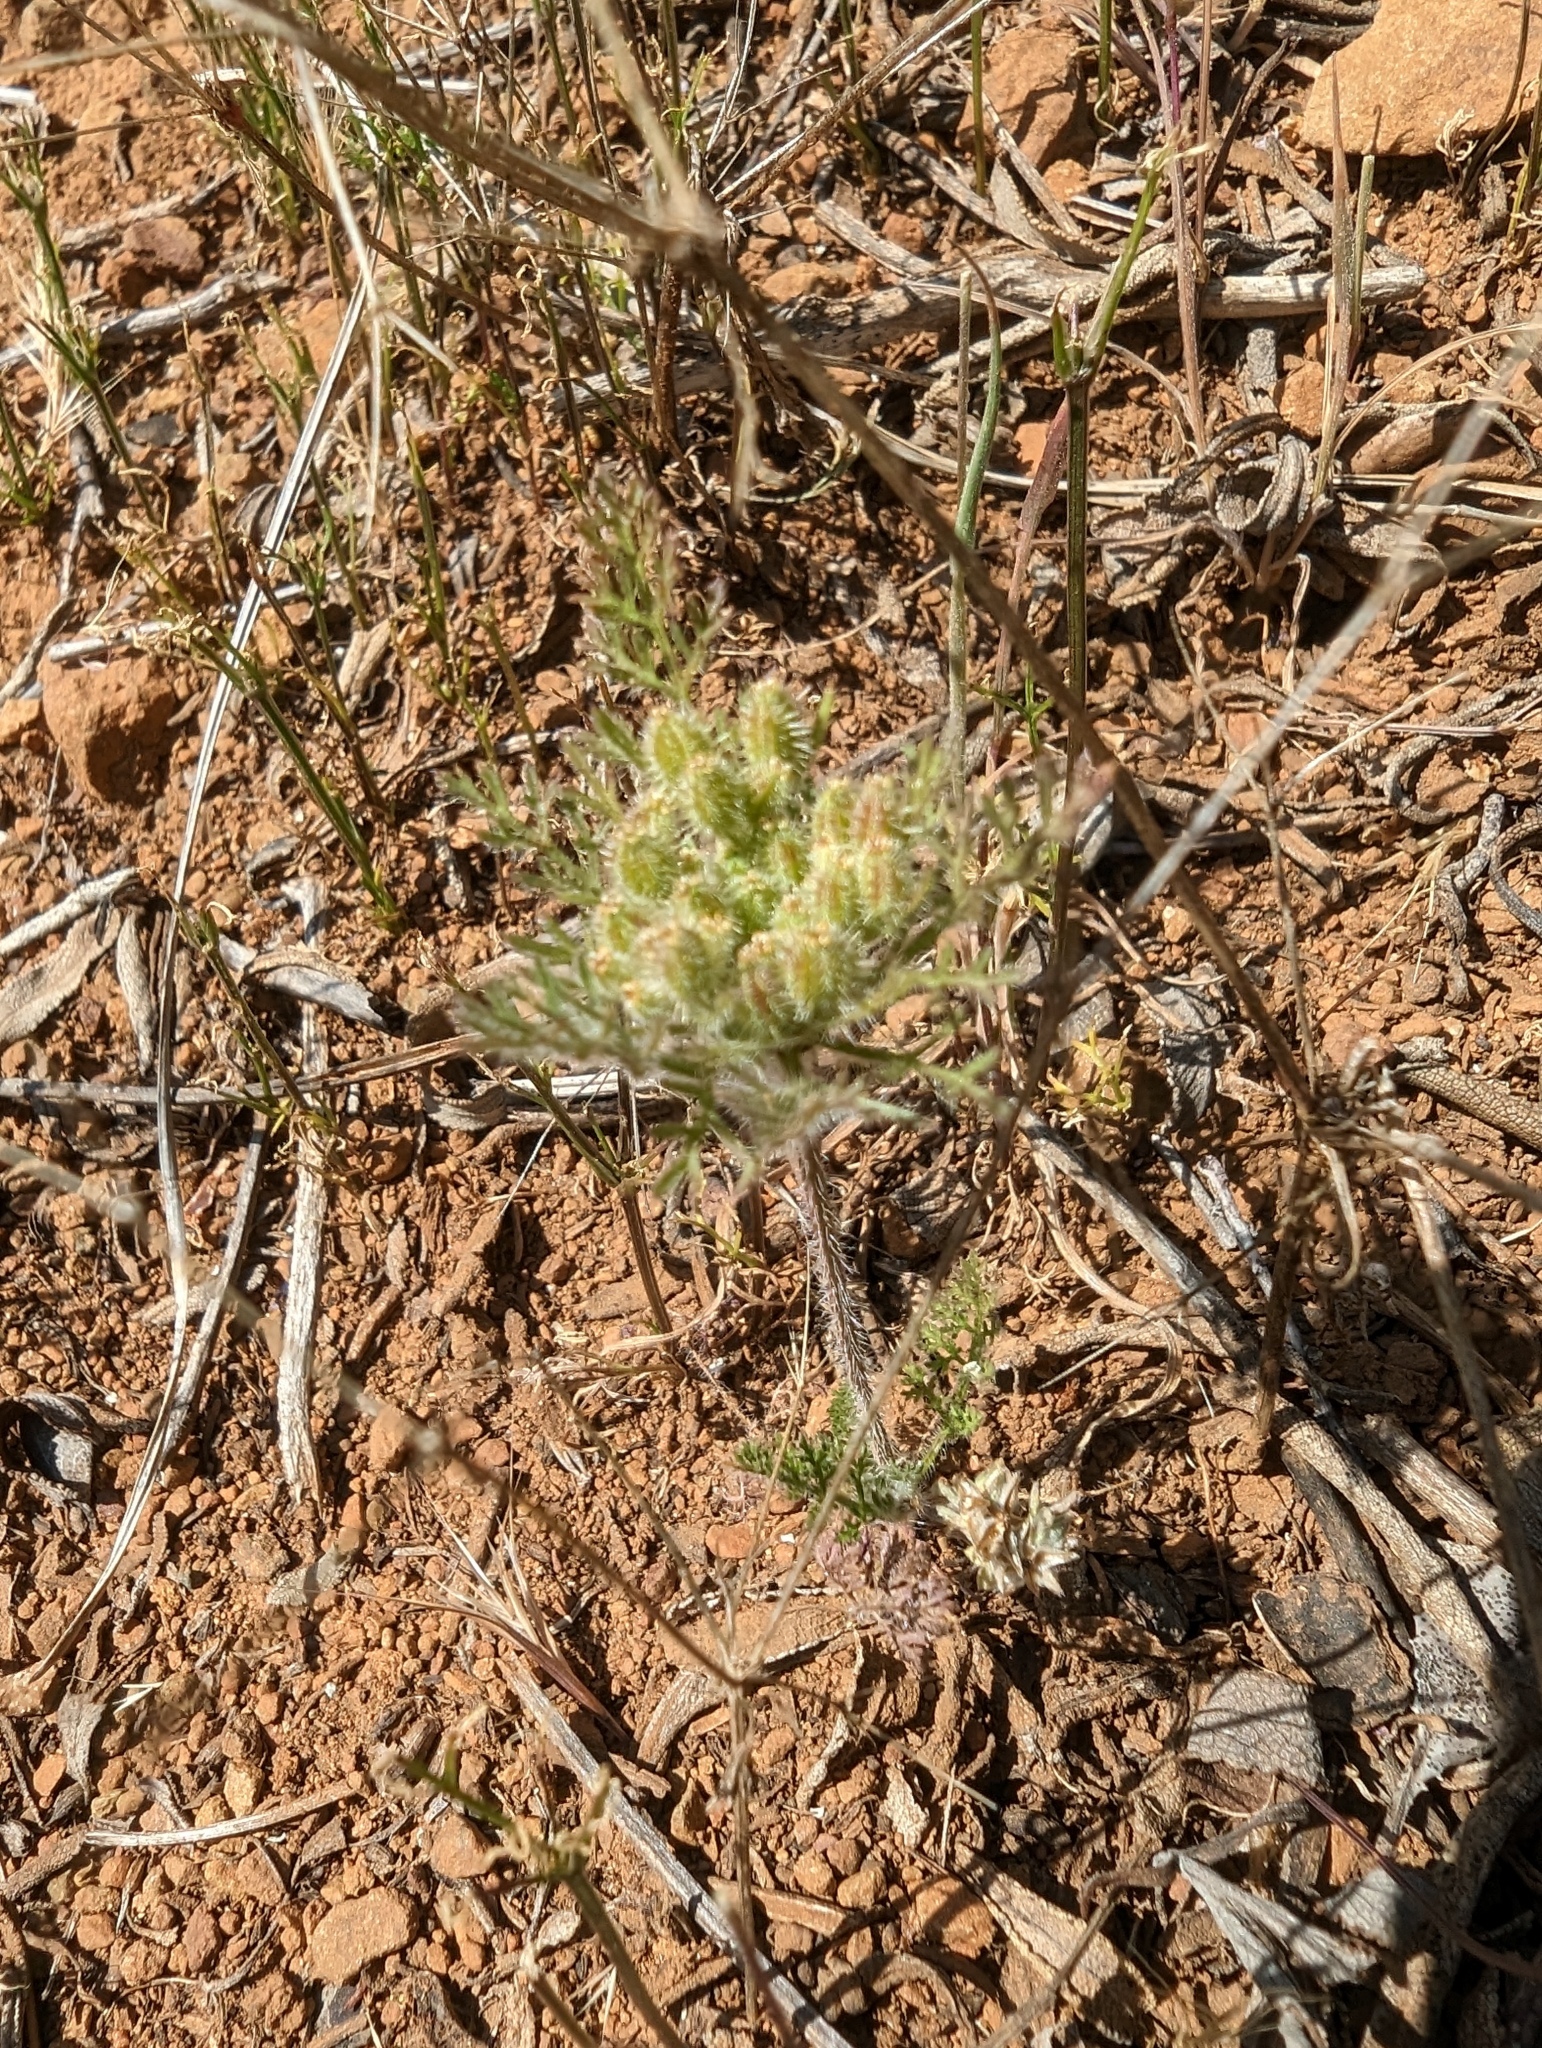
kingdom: Plantae
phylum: Tracheophyta
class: Magnoliopsida
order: Apiales
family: Apiaceae
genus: Daucus
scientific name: Daucus pusillus
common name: Southwest wild carrot
